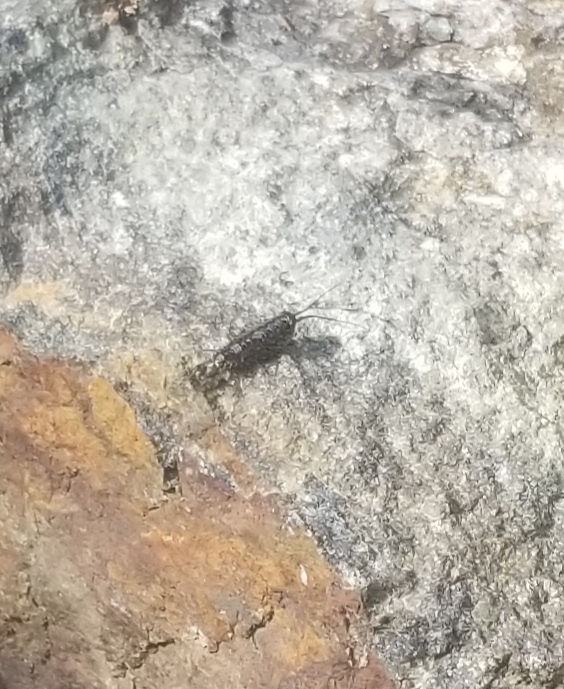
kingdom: Animalia
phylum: Arthropoda
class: Malacostraca
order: Isopoda
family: Ligiidae
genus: Ligia
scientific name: Ligia exotica
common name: Wharf roach
